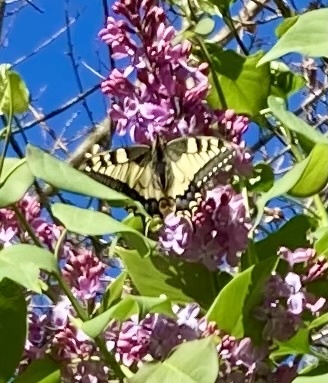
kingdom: Animalia
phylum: Arthropoda
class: Insecta
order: Lepidoptera
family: Papilionidae
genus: Papilio
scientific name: Papilio machaon
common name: Swallowtail
